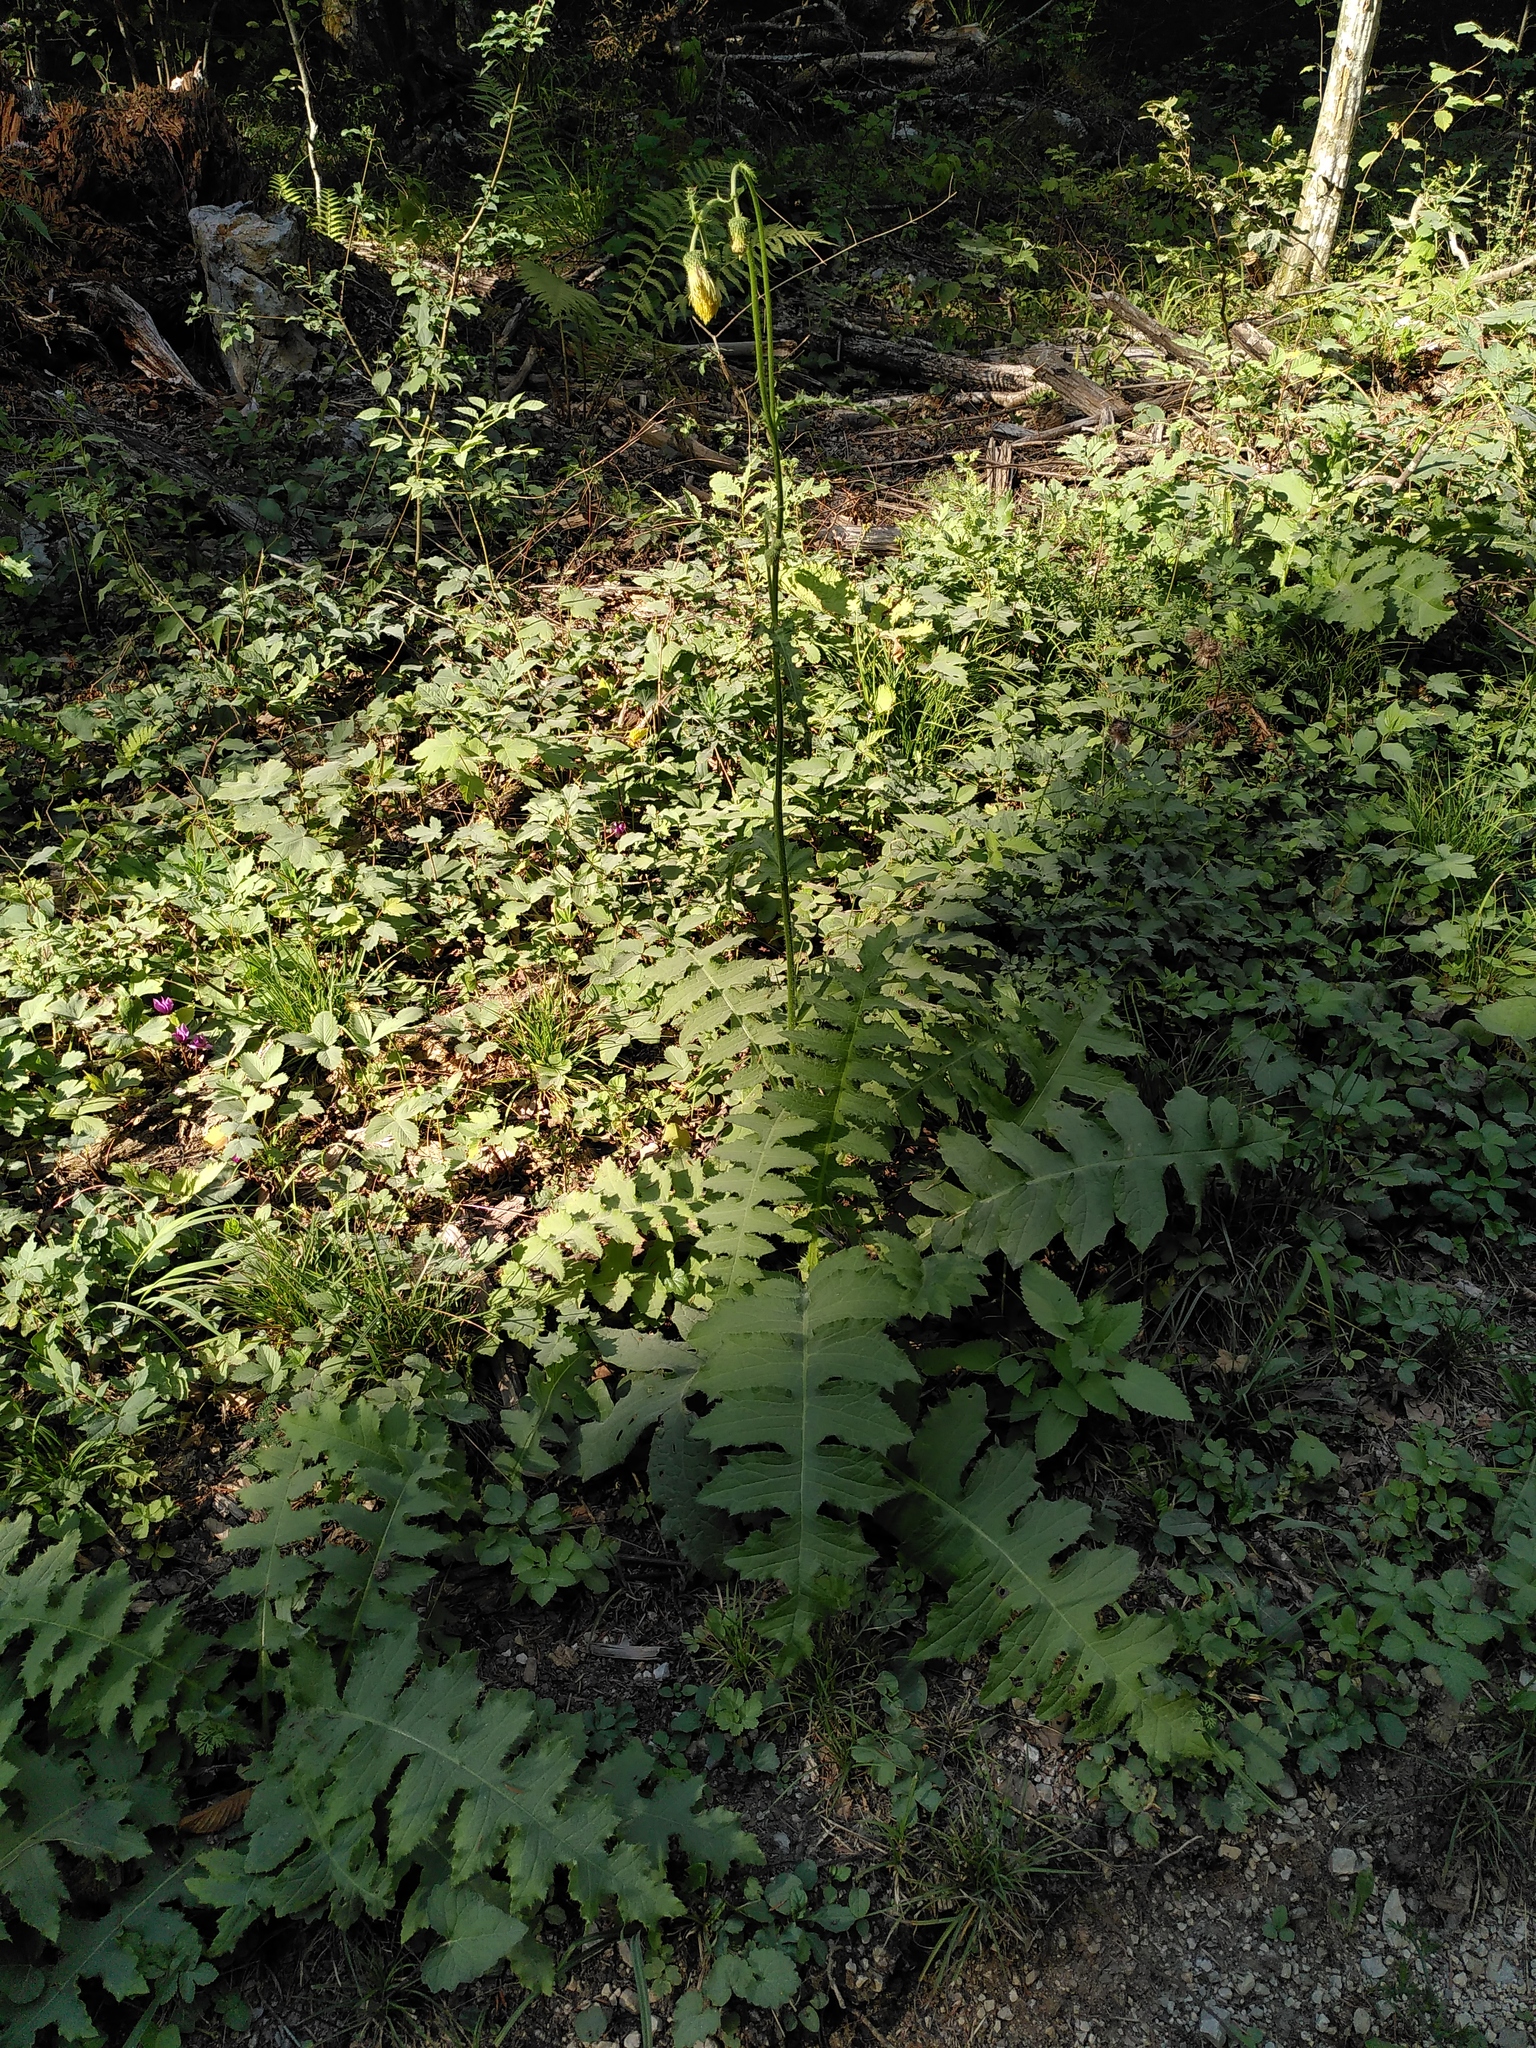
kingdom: Plantae
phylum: Tracheophyta
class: Magnoliopsida
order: Asterales
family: Asteraceae
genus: Cirsium
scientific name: Cirsium erisithales
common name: Yellow thistle
